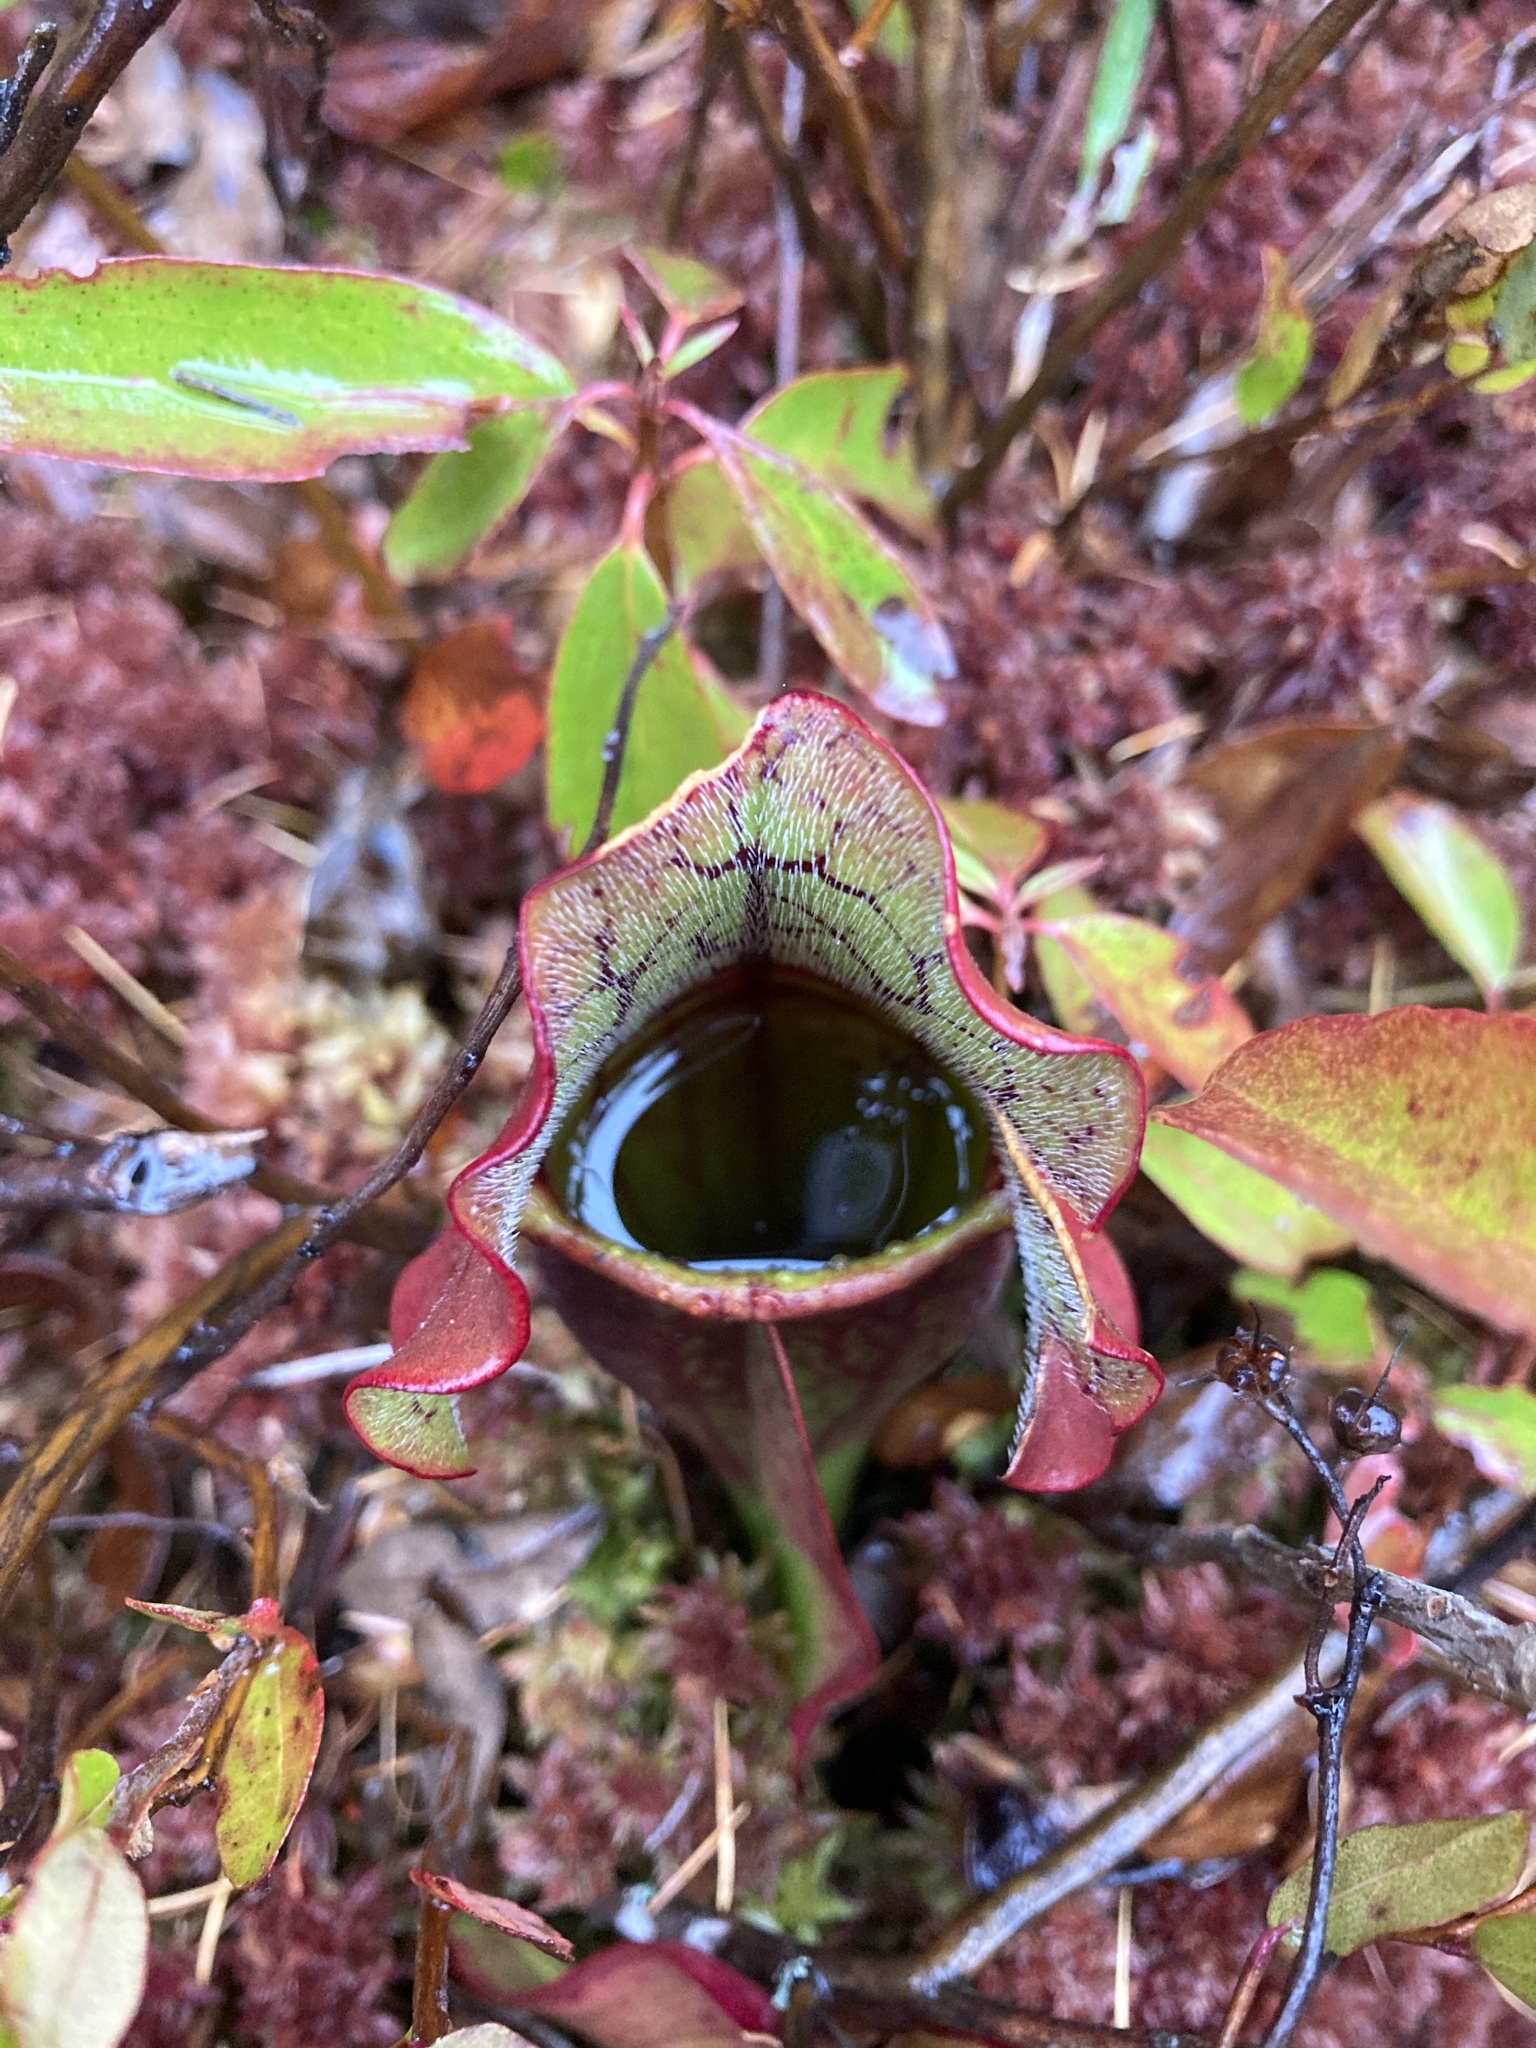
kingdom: Plantae
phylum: Tracheophyta
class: Magnoliopsida
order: Ericales
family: Sarraceniaceae
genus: Sarracenia
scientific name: Sarracenia purpurea
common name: Pitcherplant
